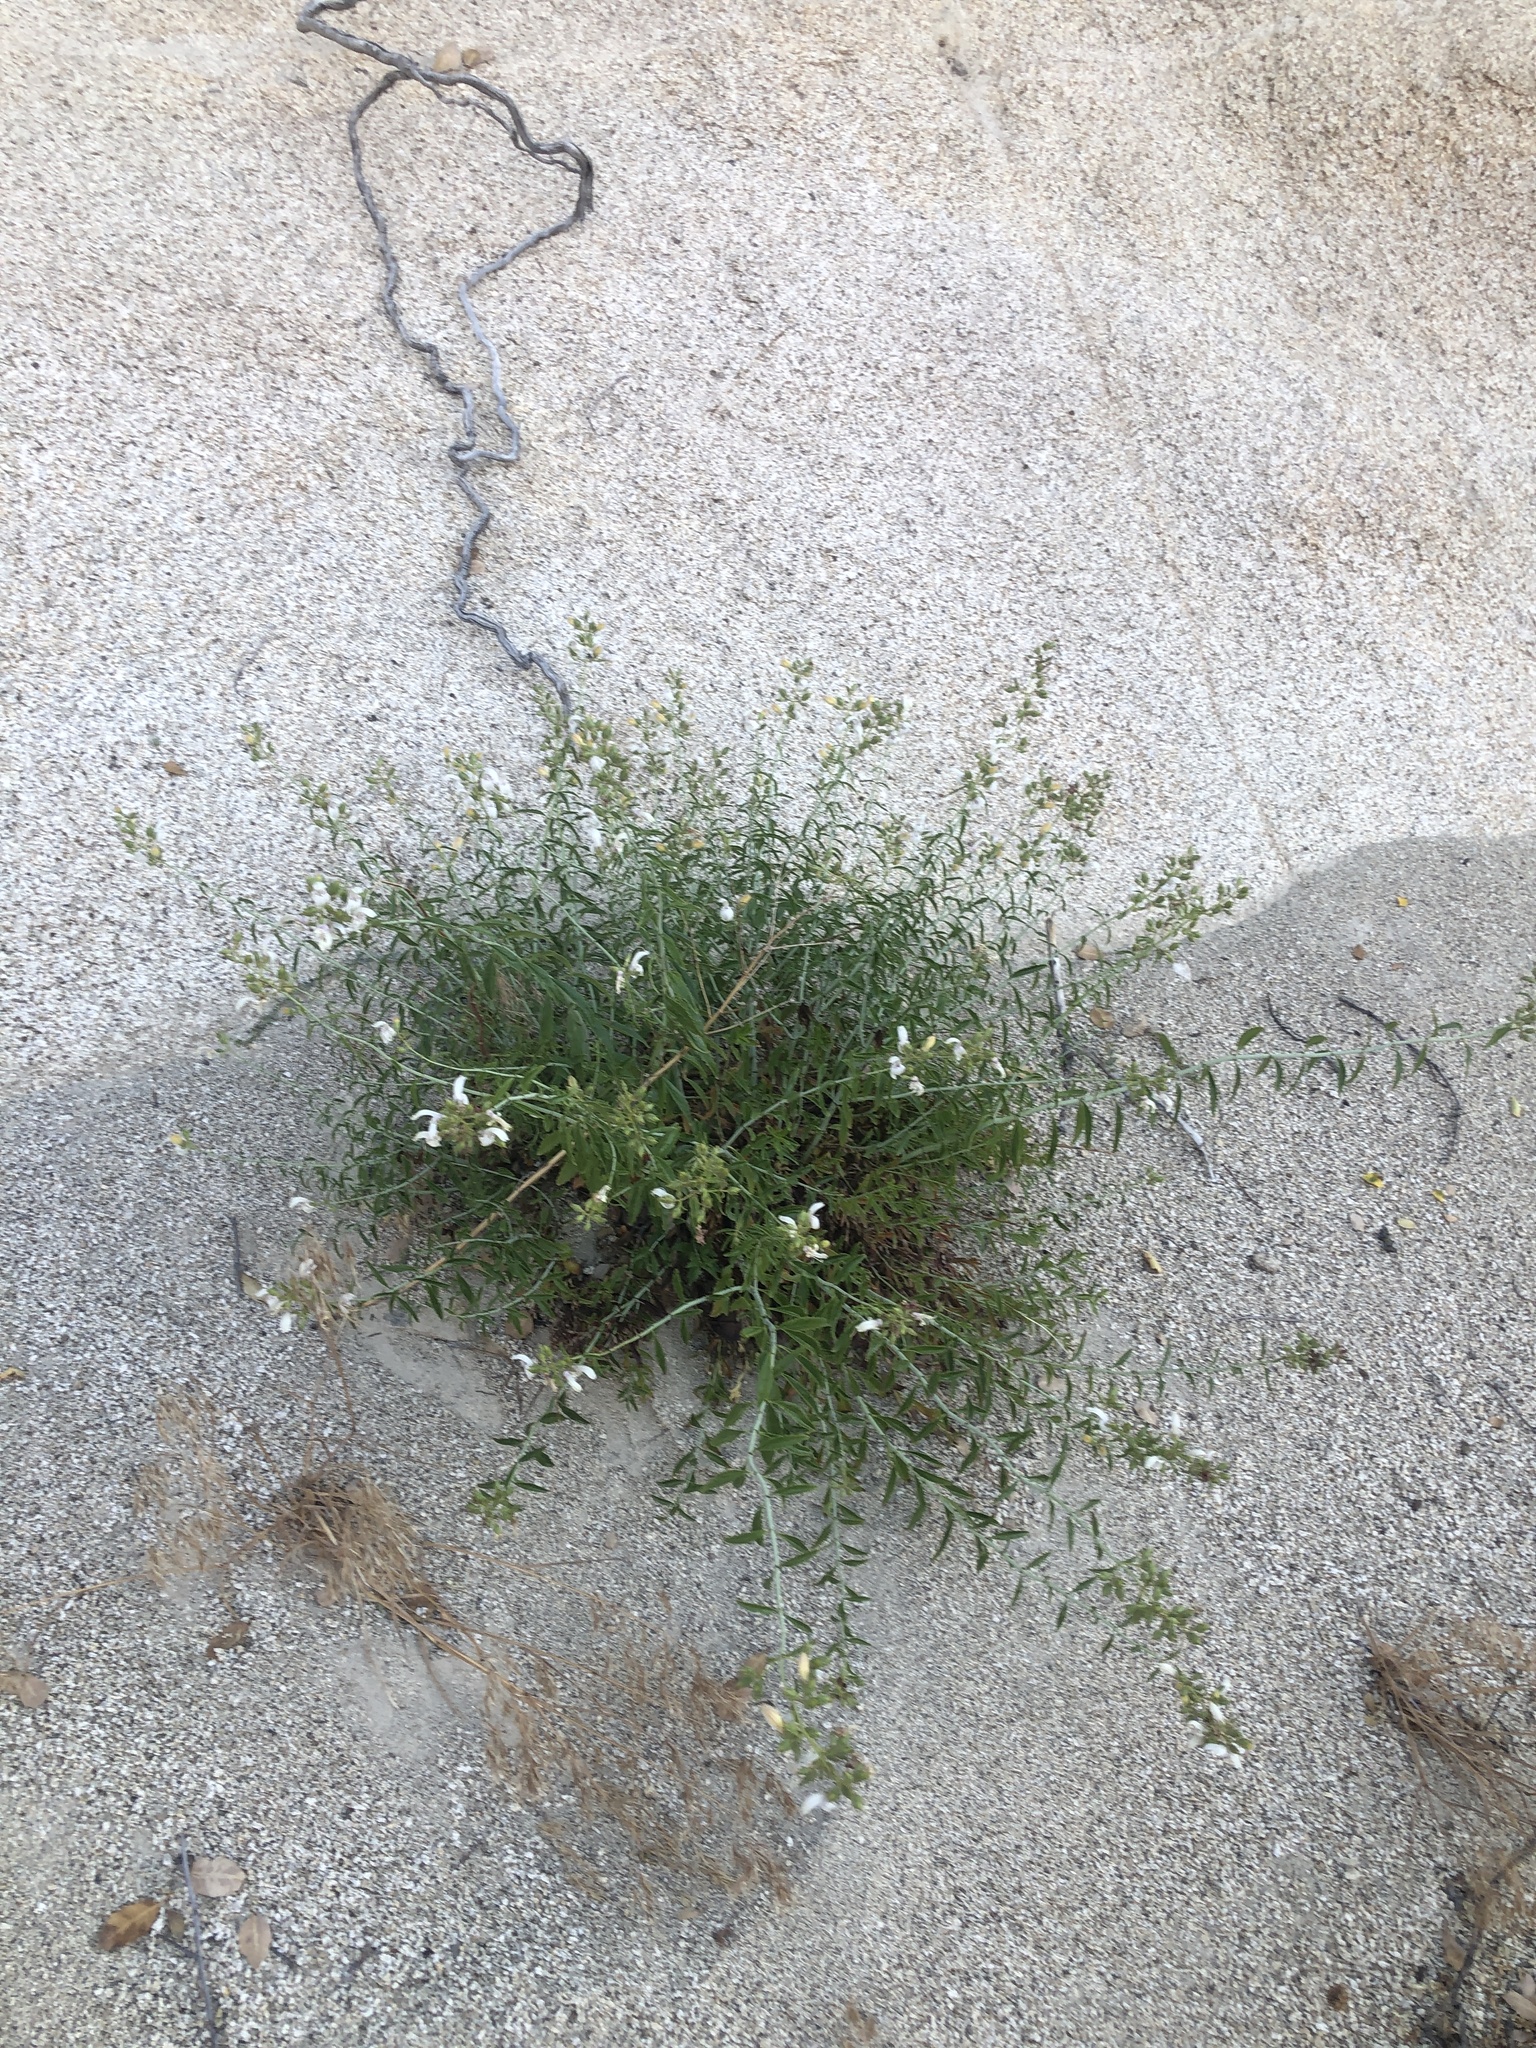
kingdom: Plantae
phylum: Tracheophyta
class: Magnoliopsida
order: Lamiales
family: Plantaginaceae
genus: Keckiella
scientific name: Keckiella breviflora
